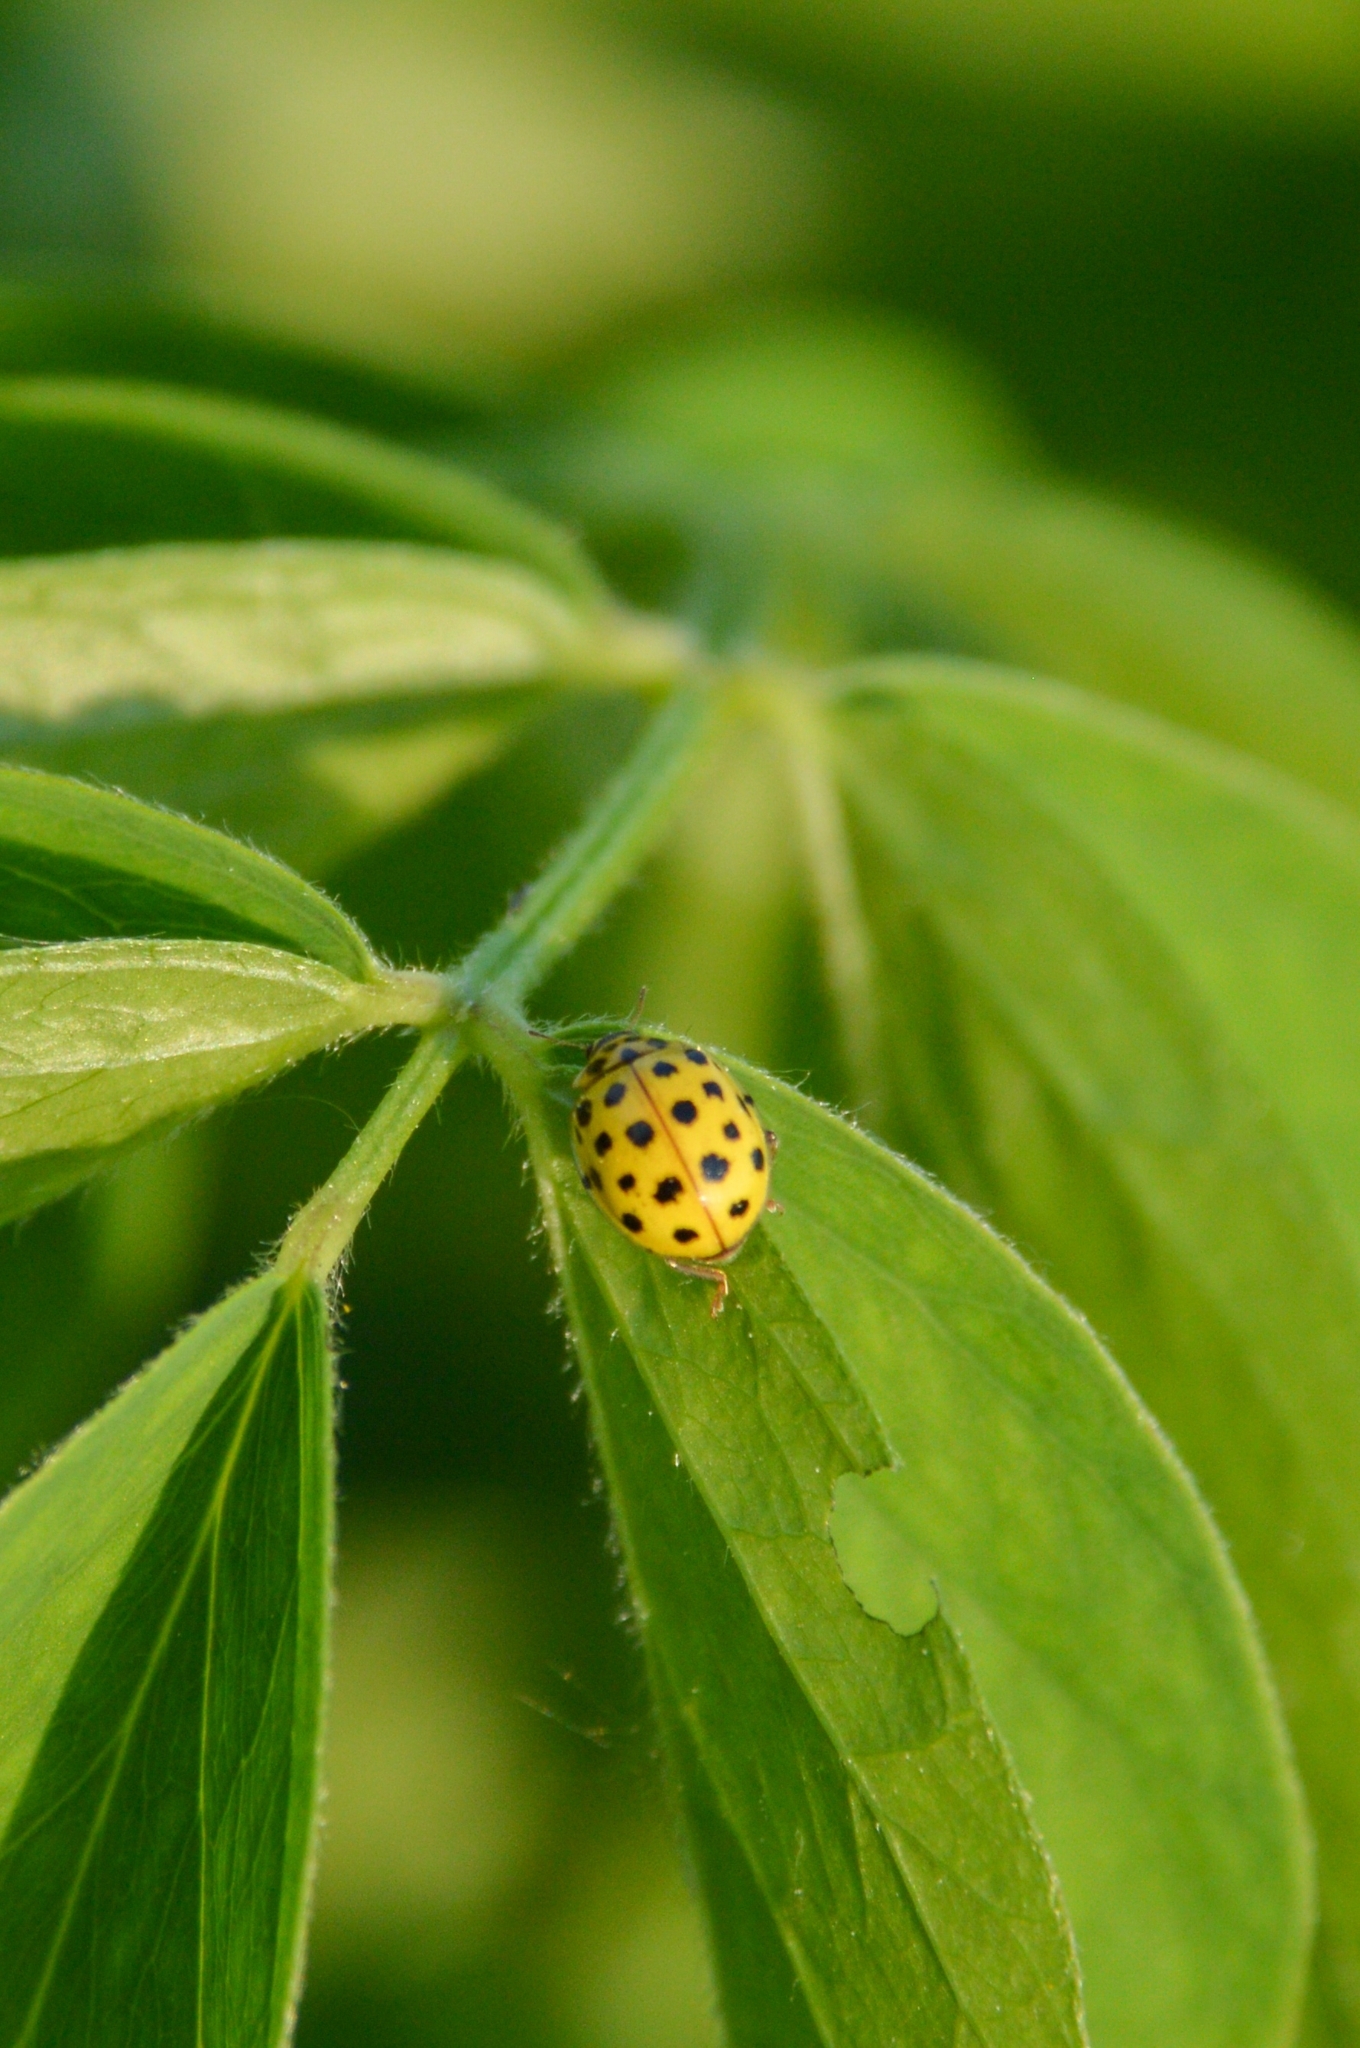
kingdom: Animalia
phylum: Arthropoda
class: Insecta
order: Coleoptera
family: Coccinellidae
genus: Psyllobora
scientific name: Psyllobora vigintiduopunctata
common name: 22-spot ladybird
